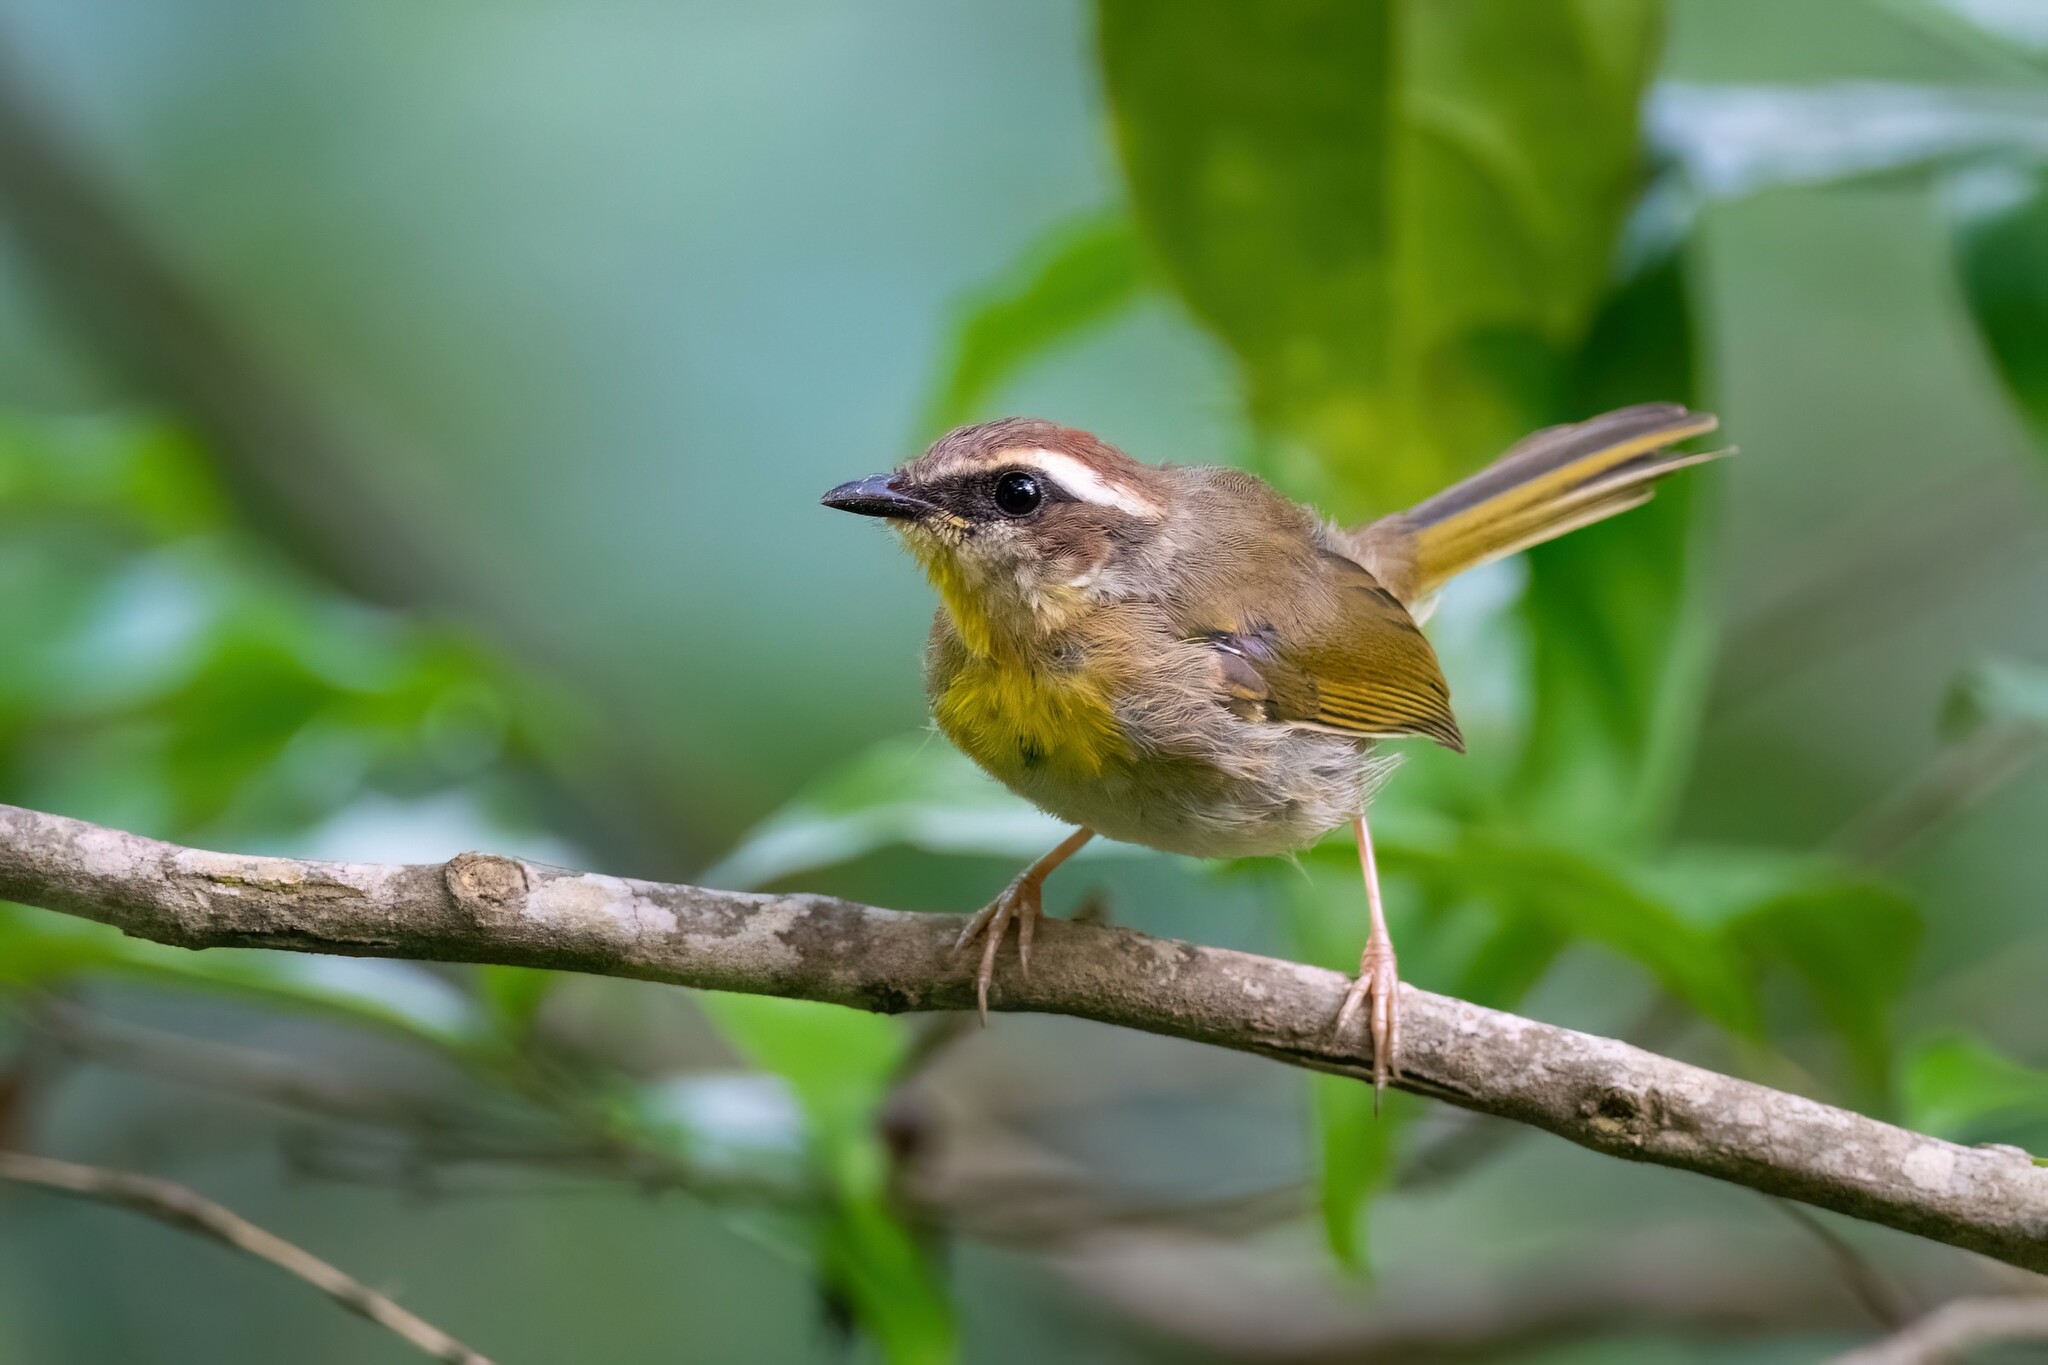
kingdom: Animalia
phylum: Chordata
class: Aves
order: Passeriformes
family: Parulidae
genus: Basileuterus
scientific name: Basileuterus rufifrons
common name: Rufous-capped warbler
